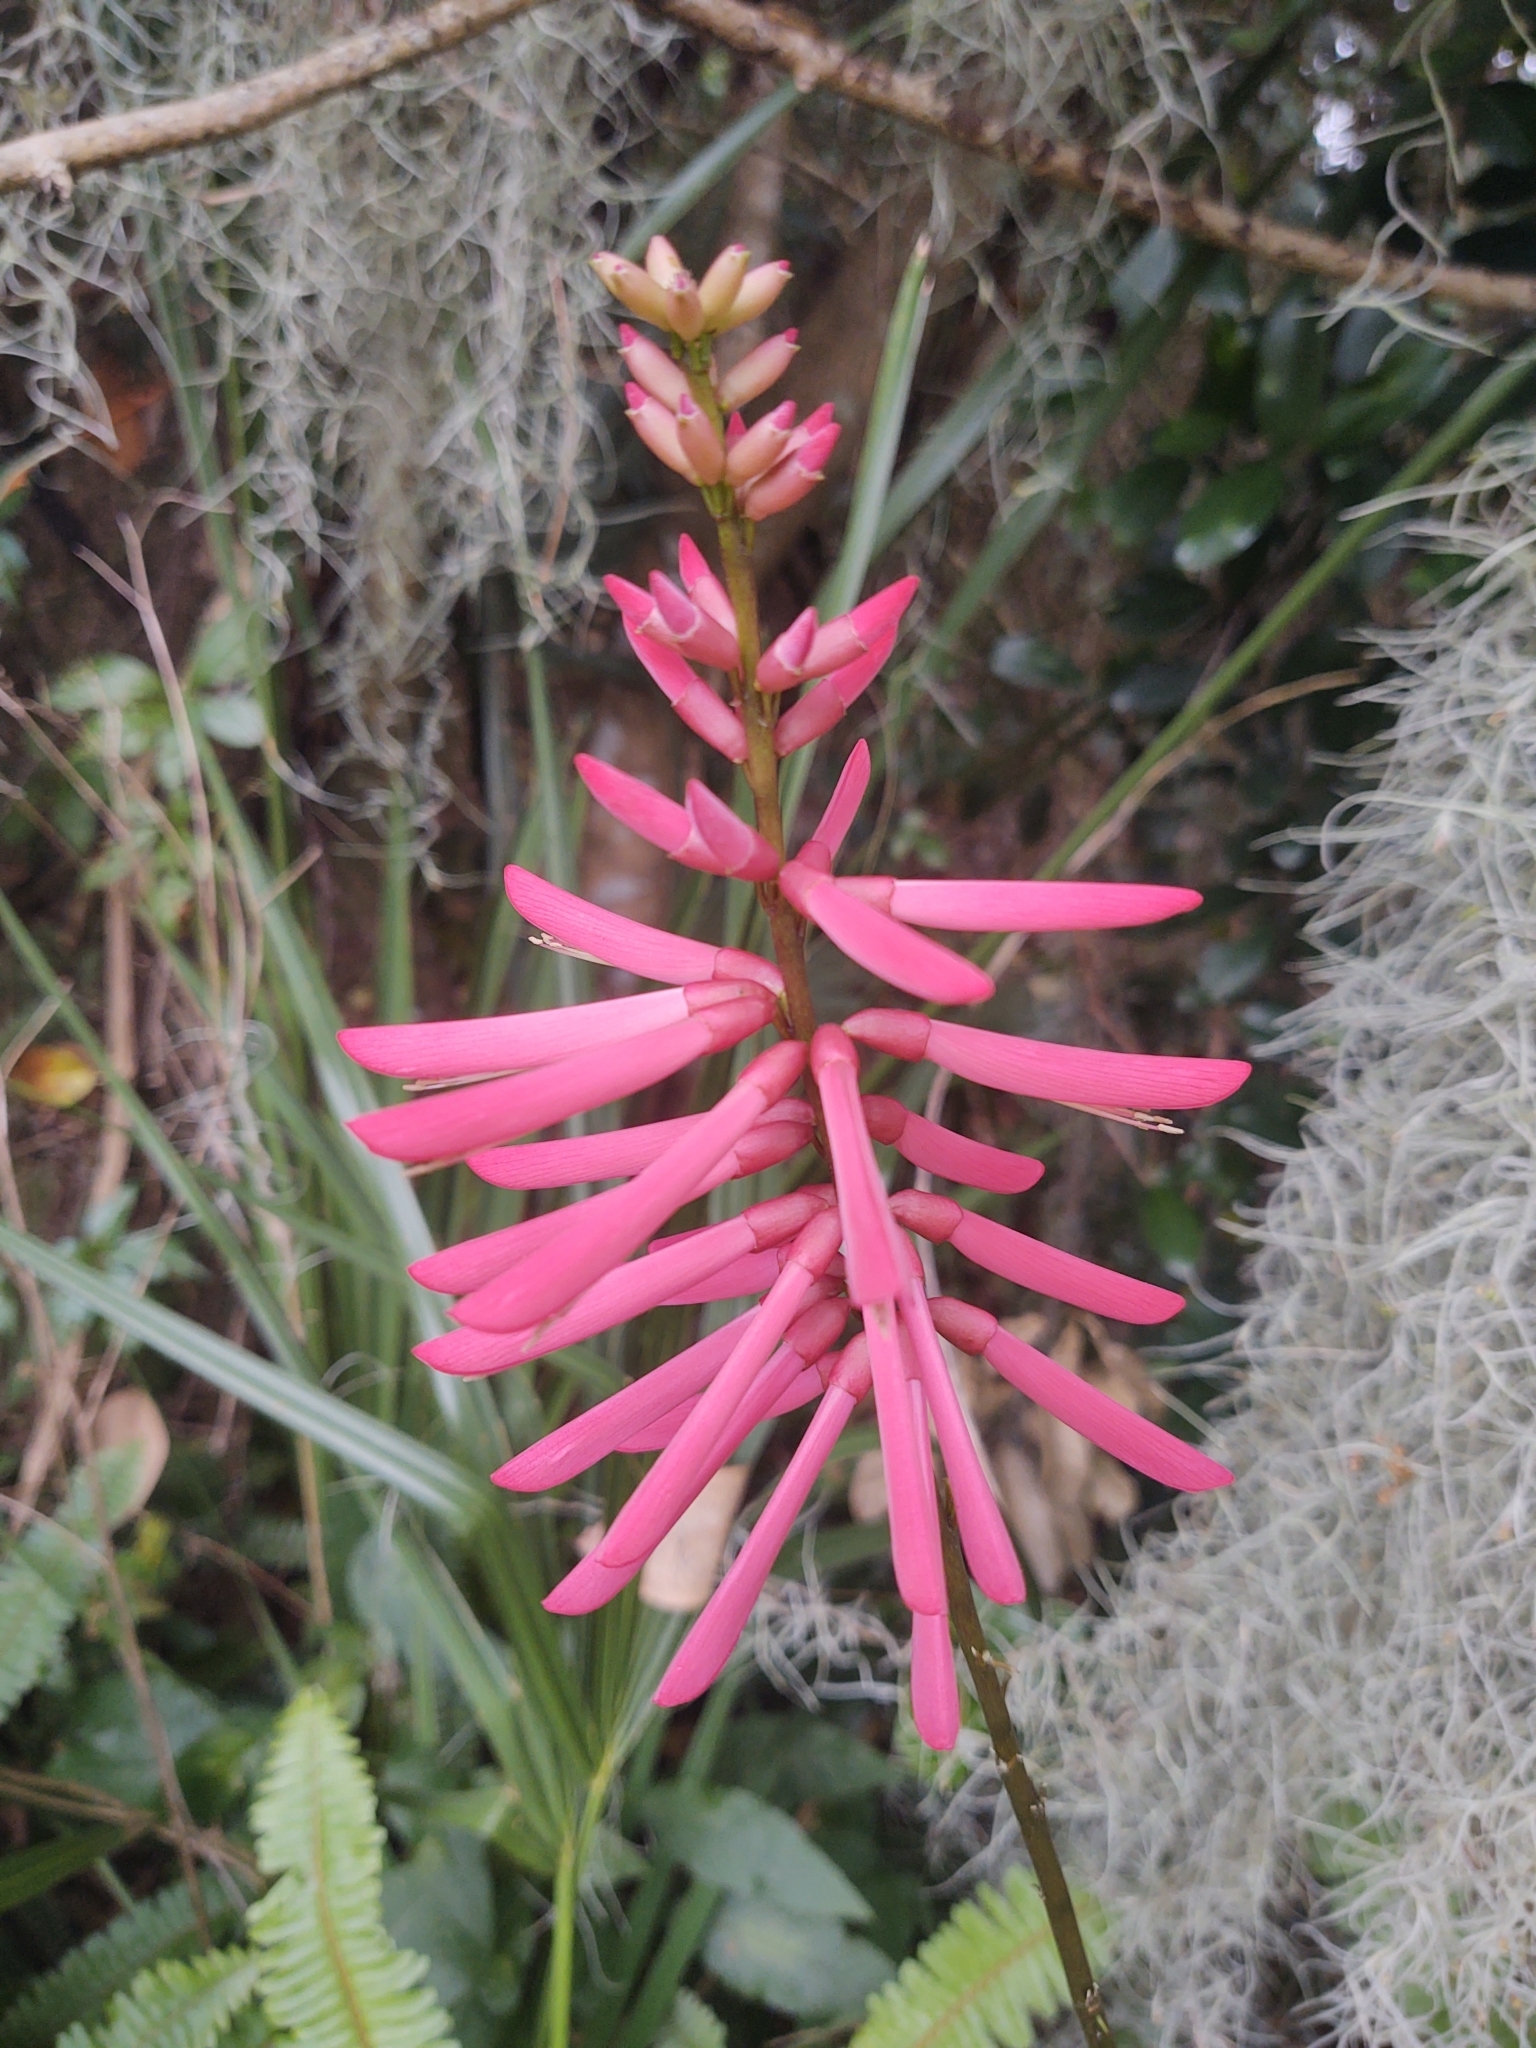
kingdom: Plantae
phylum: Tracheophyta
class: Magnoliopsida
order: Fabales
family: Fabaceae
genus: Erythrina
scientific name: Erythrina herbacea
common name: Coral-bean
